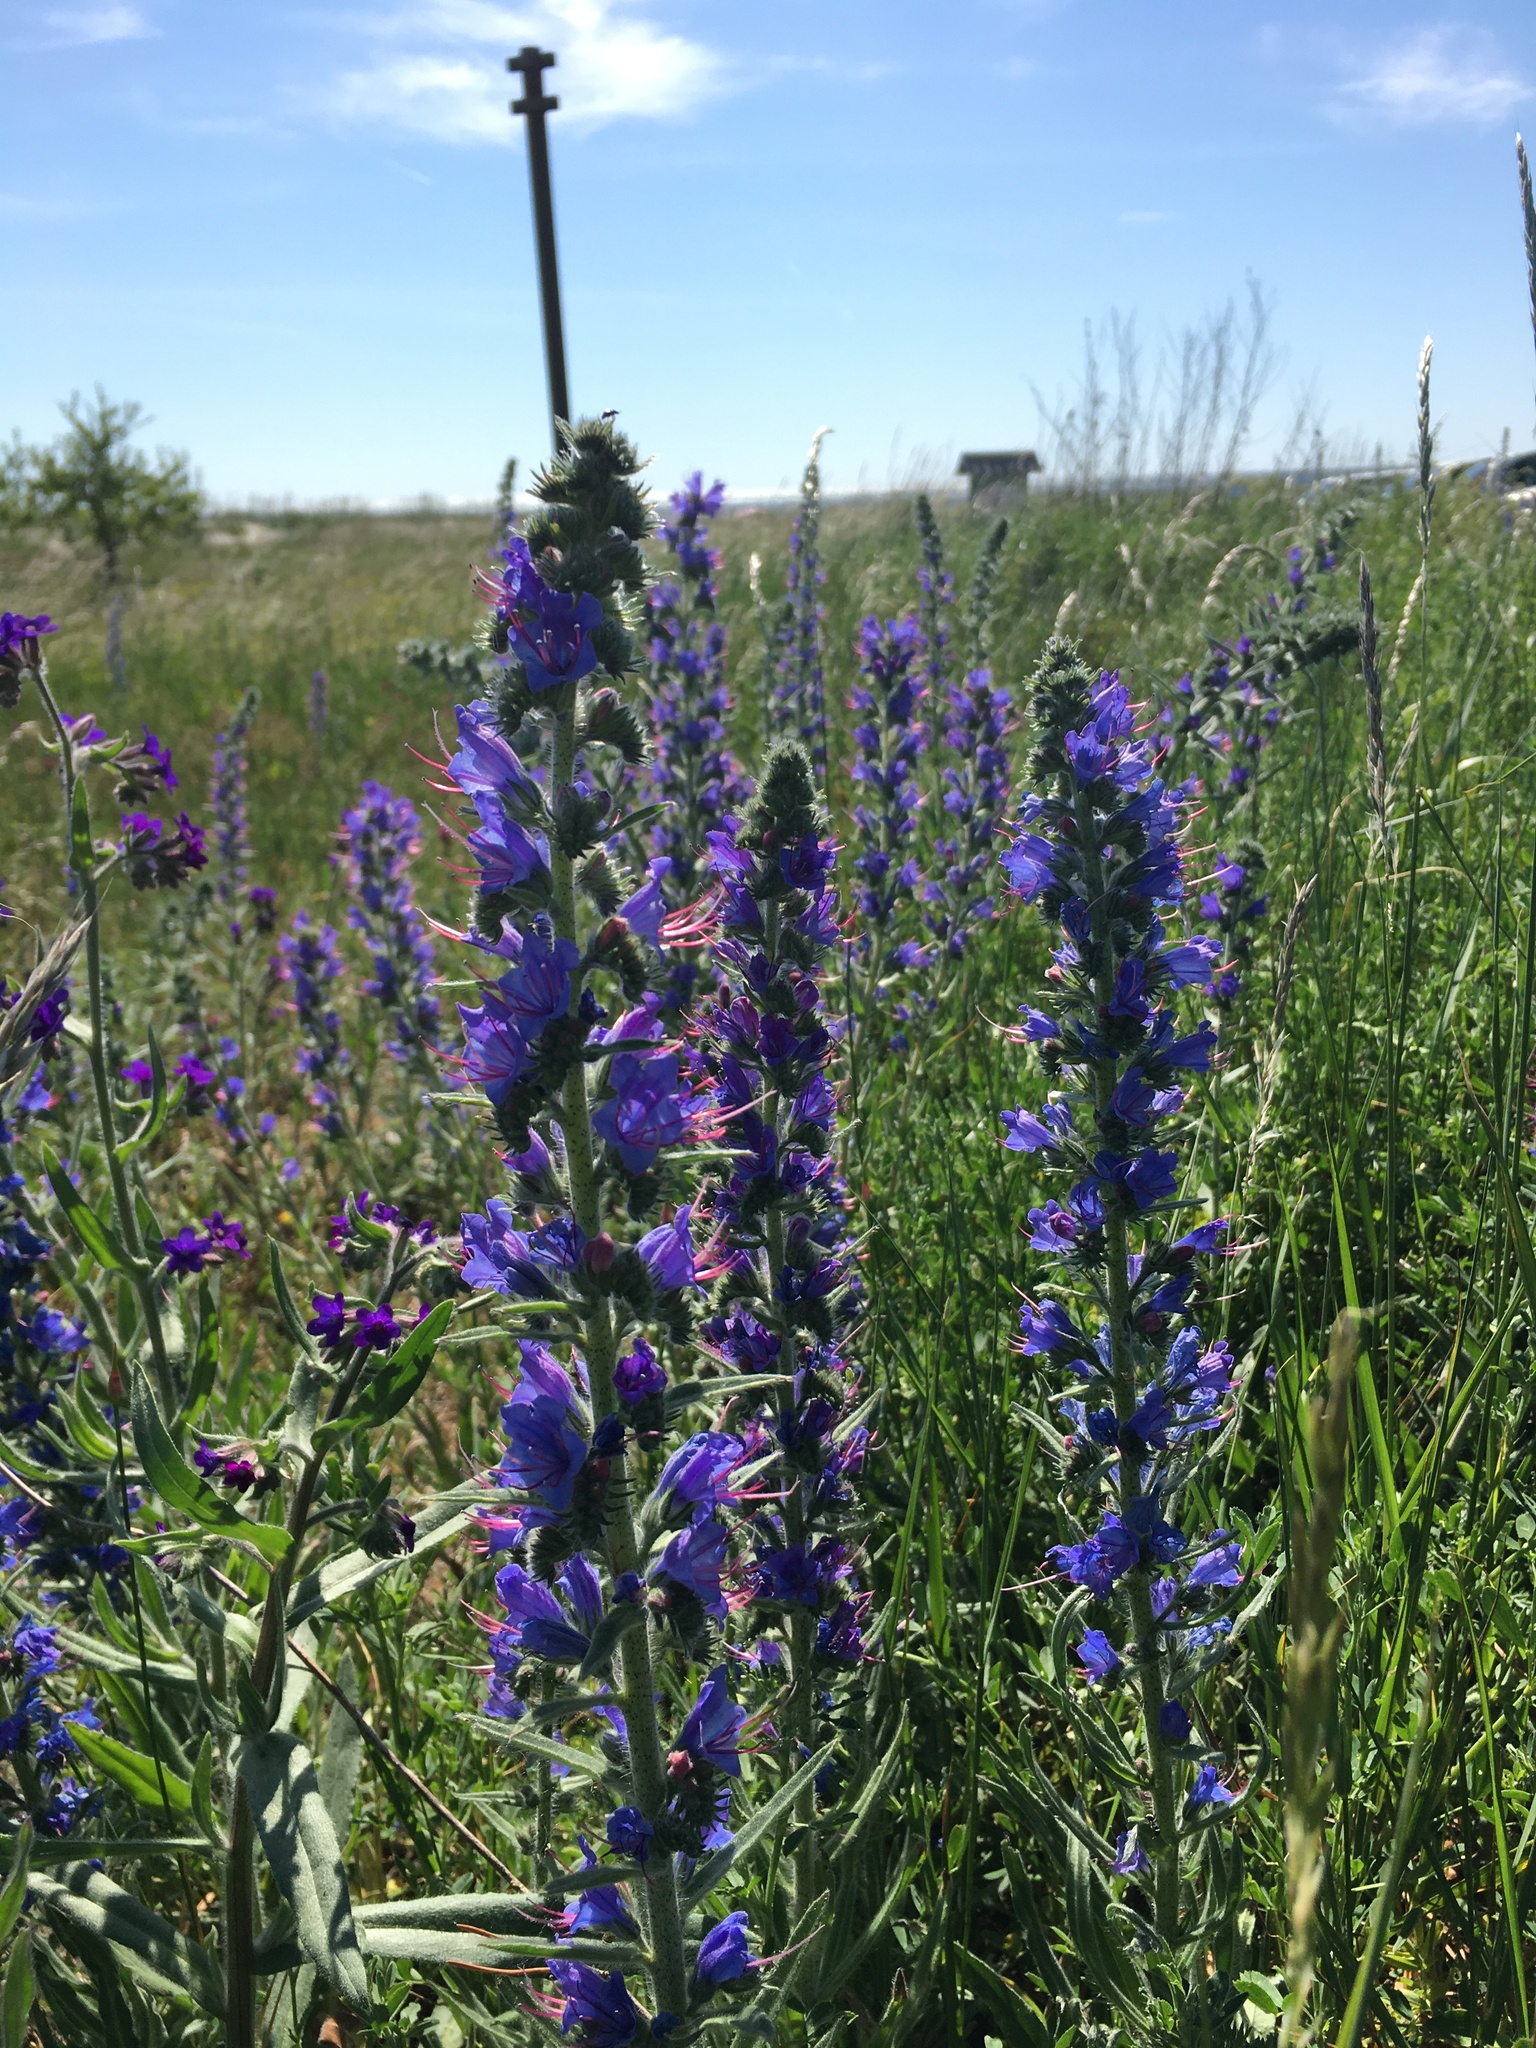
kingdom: Plantae
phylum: Tracheophyta
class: Magnoliopsida
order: Boraginales
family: Boraginaceae
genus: Echium
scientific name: Echium vulgare
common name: Common viper's bugloss
